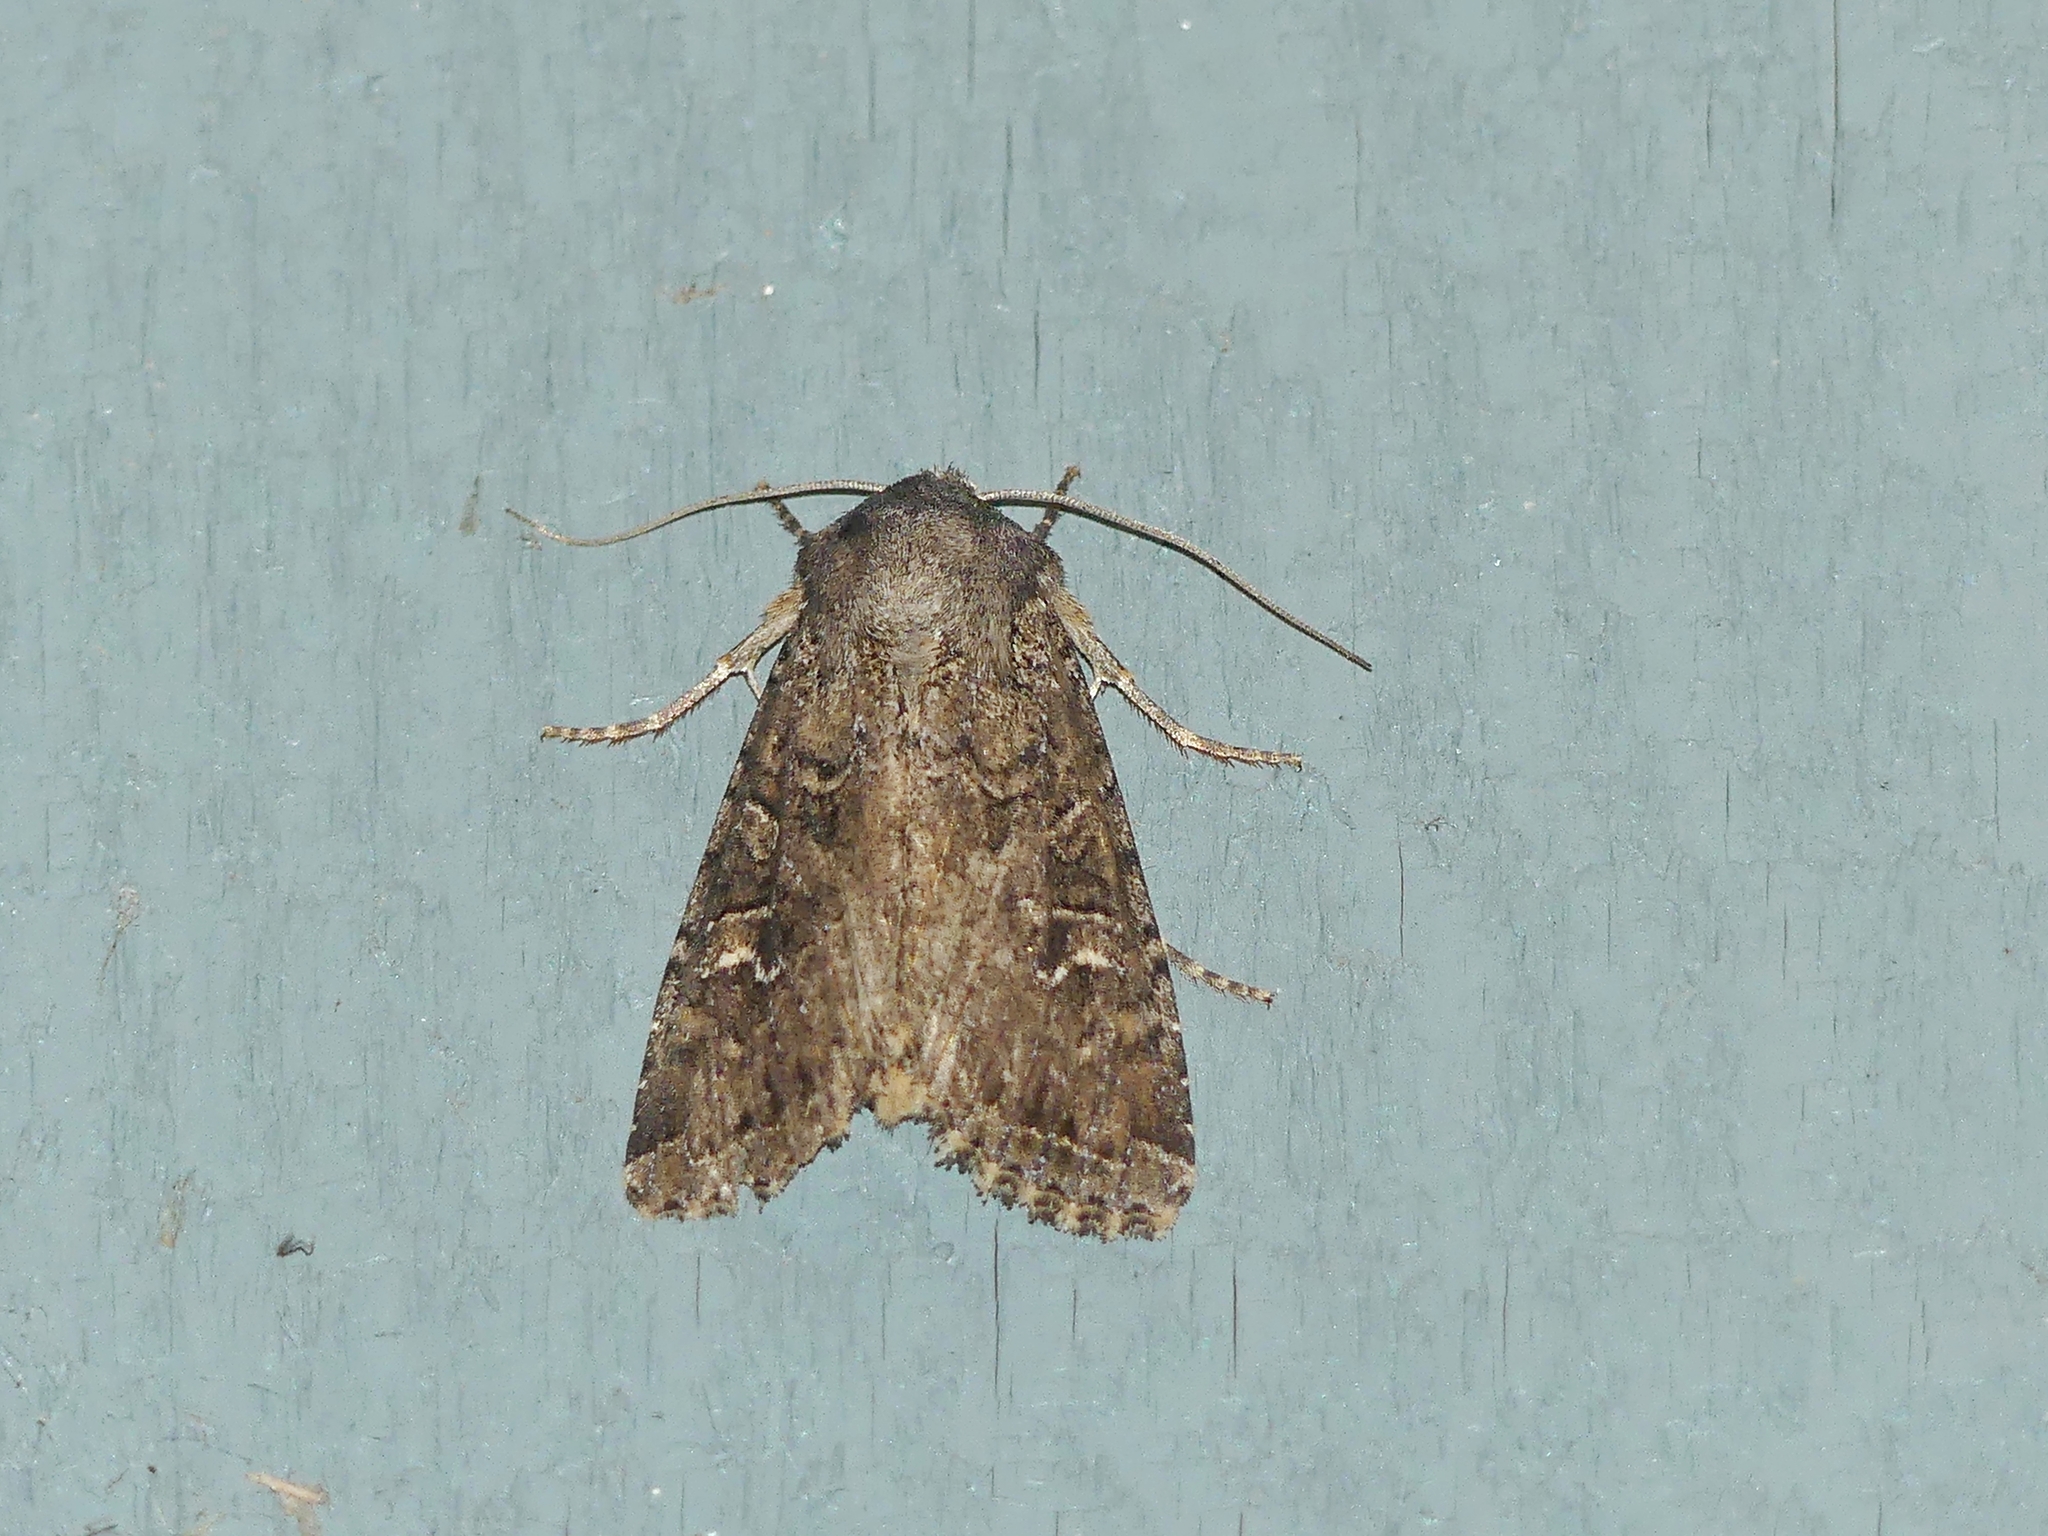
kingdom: Animalia
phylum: Arthropoda
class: Insecta
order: Lepidoptera
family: Noctuidae
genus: Apamea
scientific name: Apamea devastator
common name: Glassy cutworm
